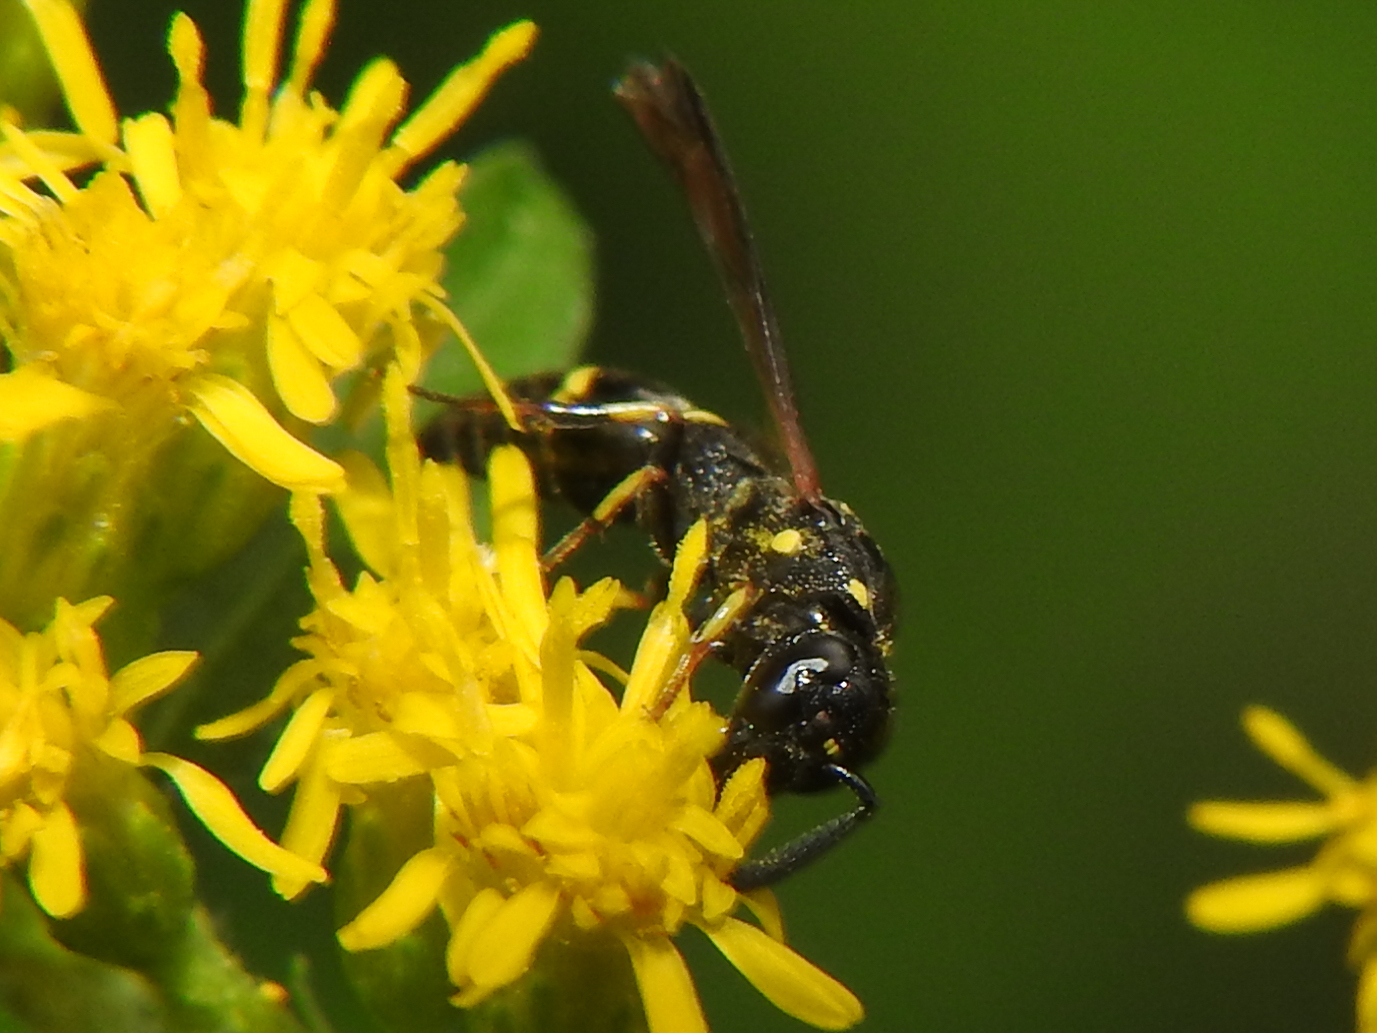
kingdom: Animalia
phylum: Arthropoda
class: Insecta
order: Hymenoptera
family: Eumenidae
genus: Symmorphus
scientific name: Symmorphus canadensis
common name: Canadian potter wasp
